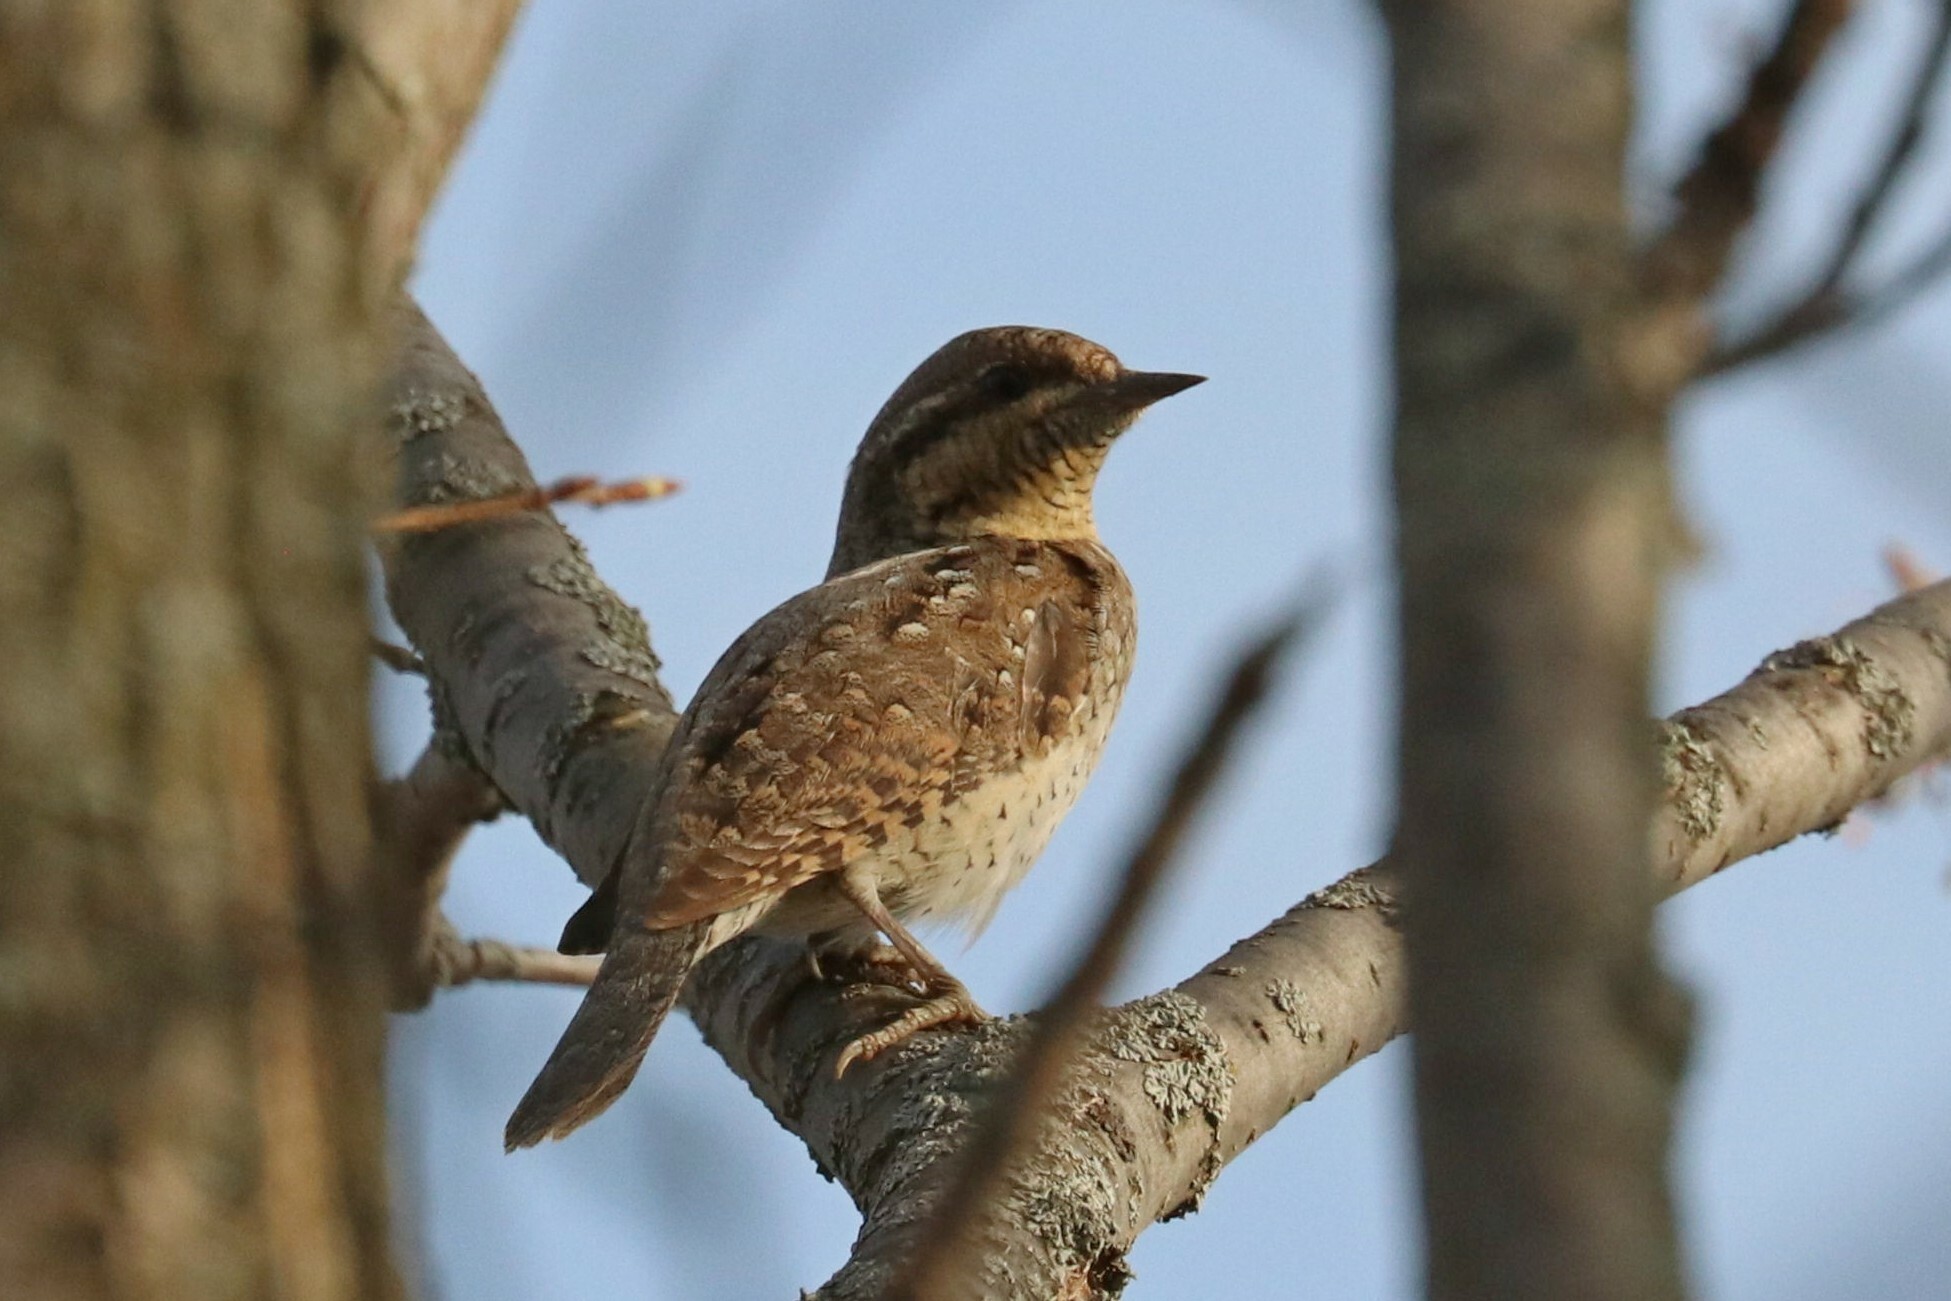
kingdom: Animalia
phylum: Chordata
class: Aves
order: Piciformes
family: Picidae
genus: Jynx
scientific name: Jynx torquilla
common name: Eurasian wryneck
